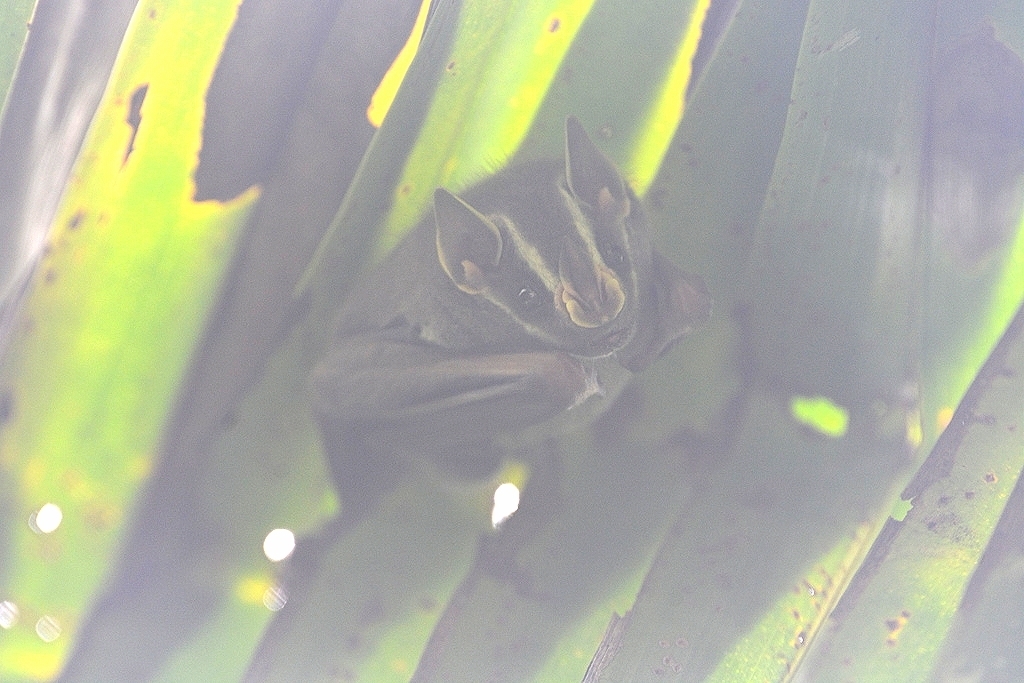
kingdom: Animalia
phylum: Chordata
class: Mammalia
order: Chiroptera
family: Phyllostomidae
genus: Uroderma
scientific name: Uroderma bilobatum
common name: Common tent-making bat
